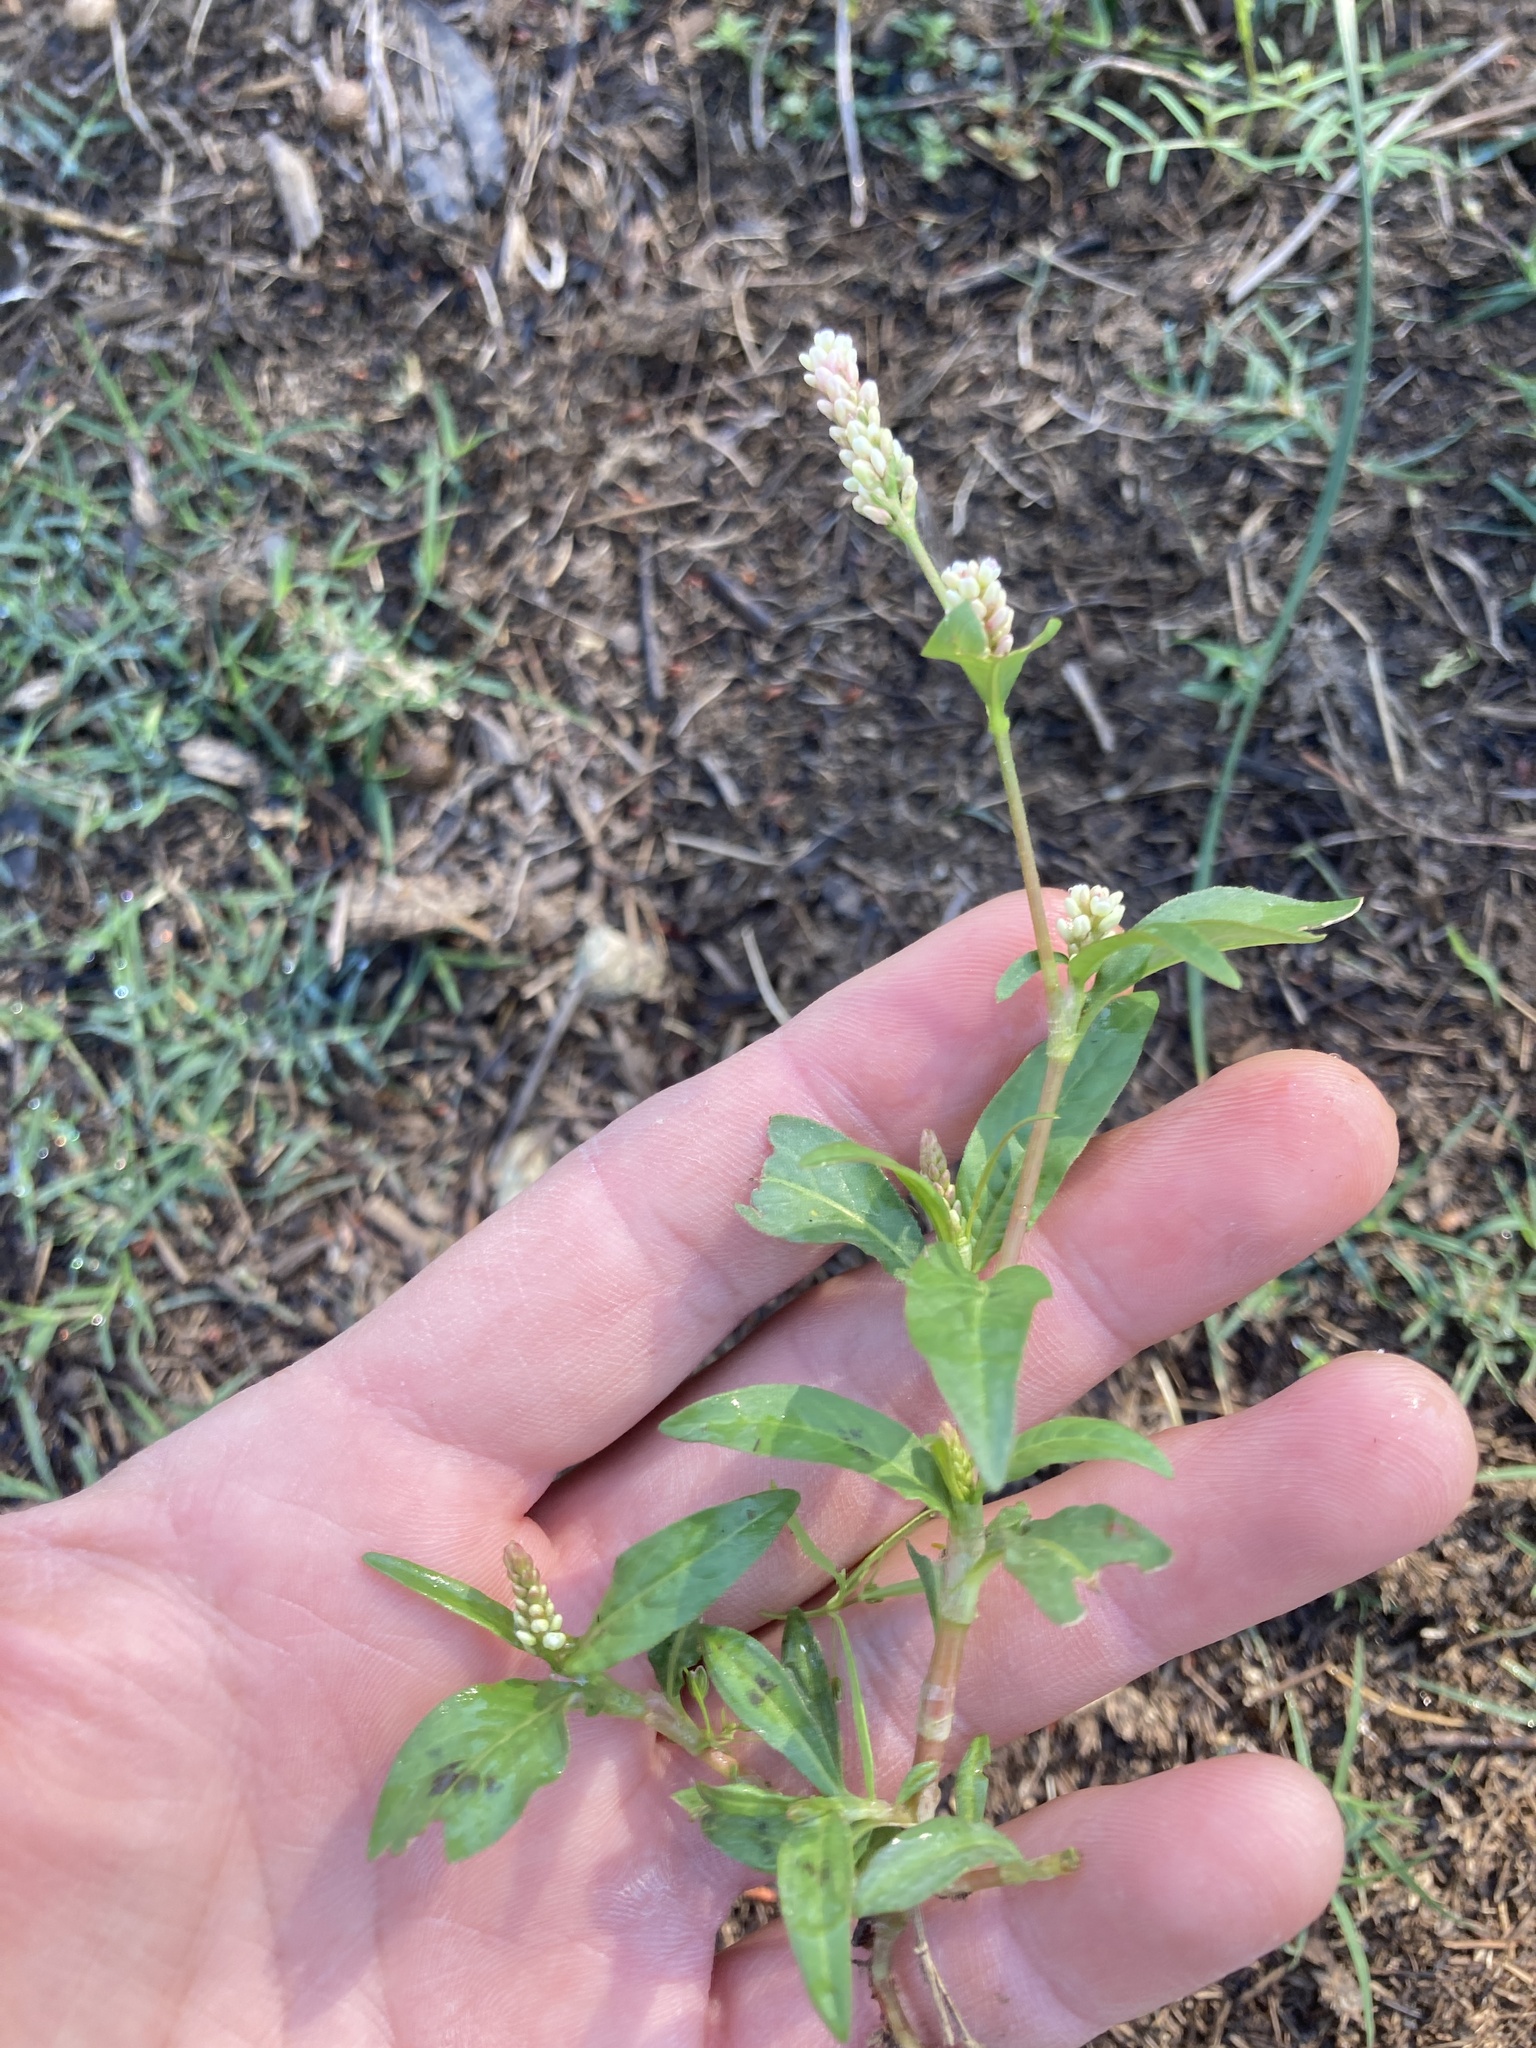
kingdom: Plantae
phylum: Tracheophyta
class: Magnoliopsida
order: Caryophyllales
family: Polygonaceae
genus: Persicaria
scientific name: Persicaria pensylvanica
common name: Pinkweed
